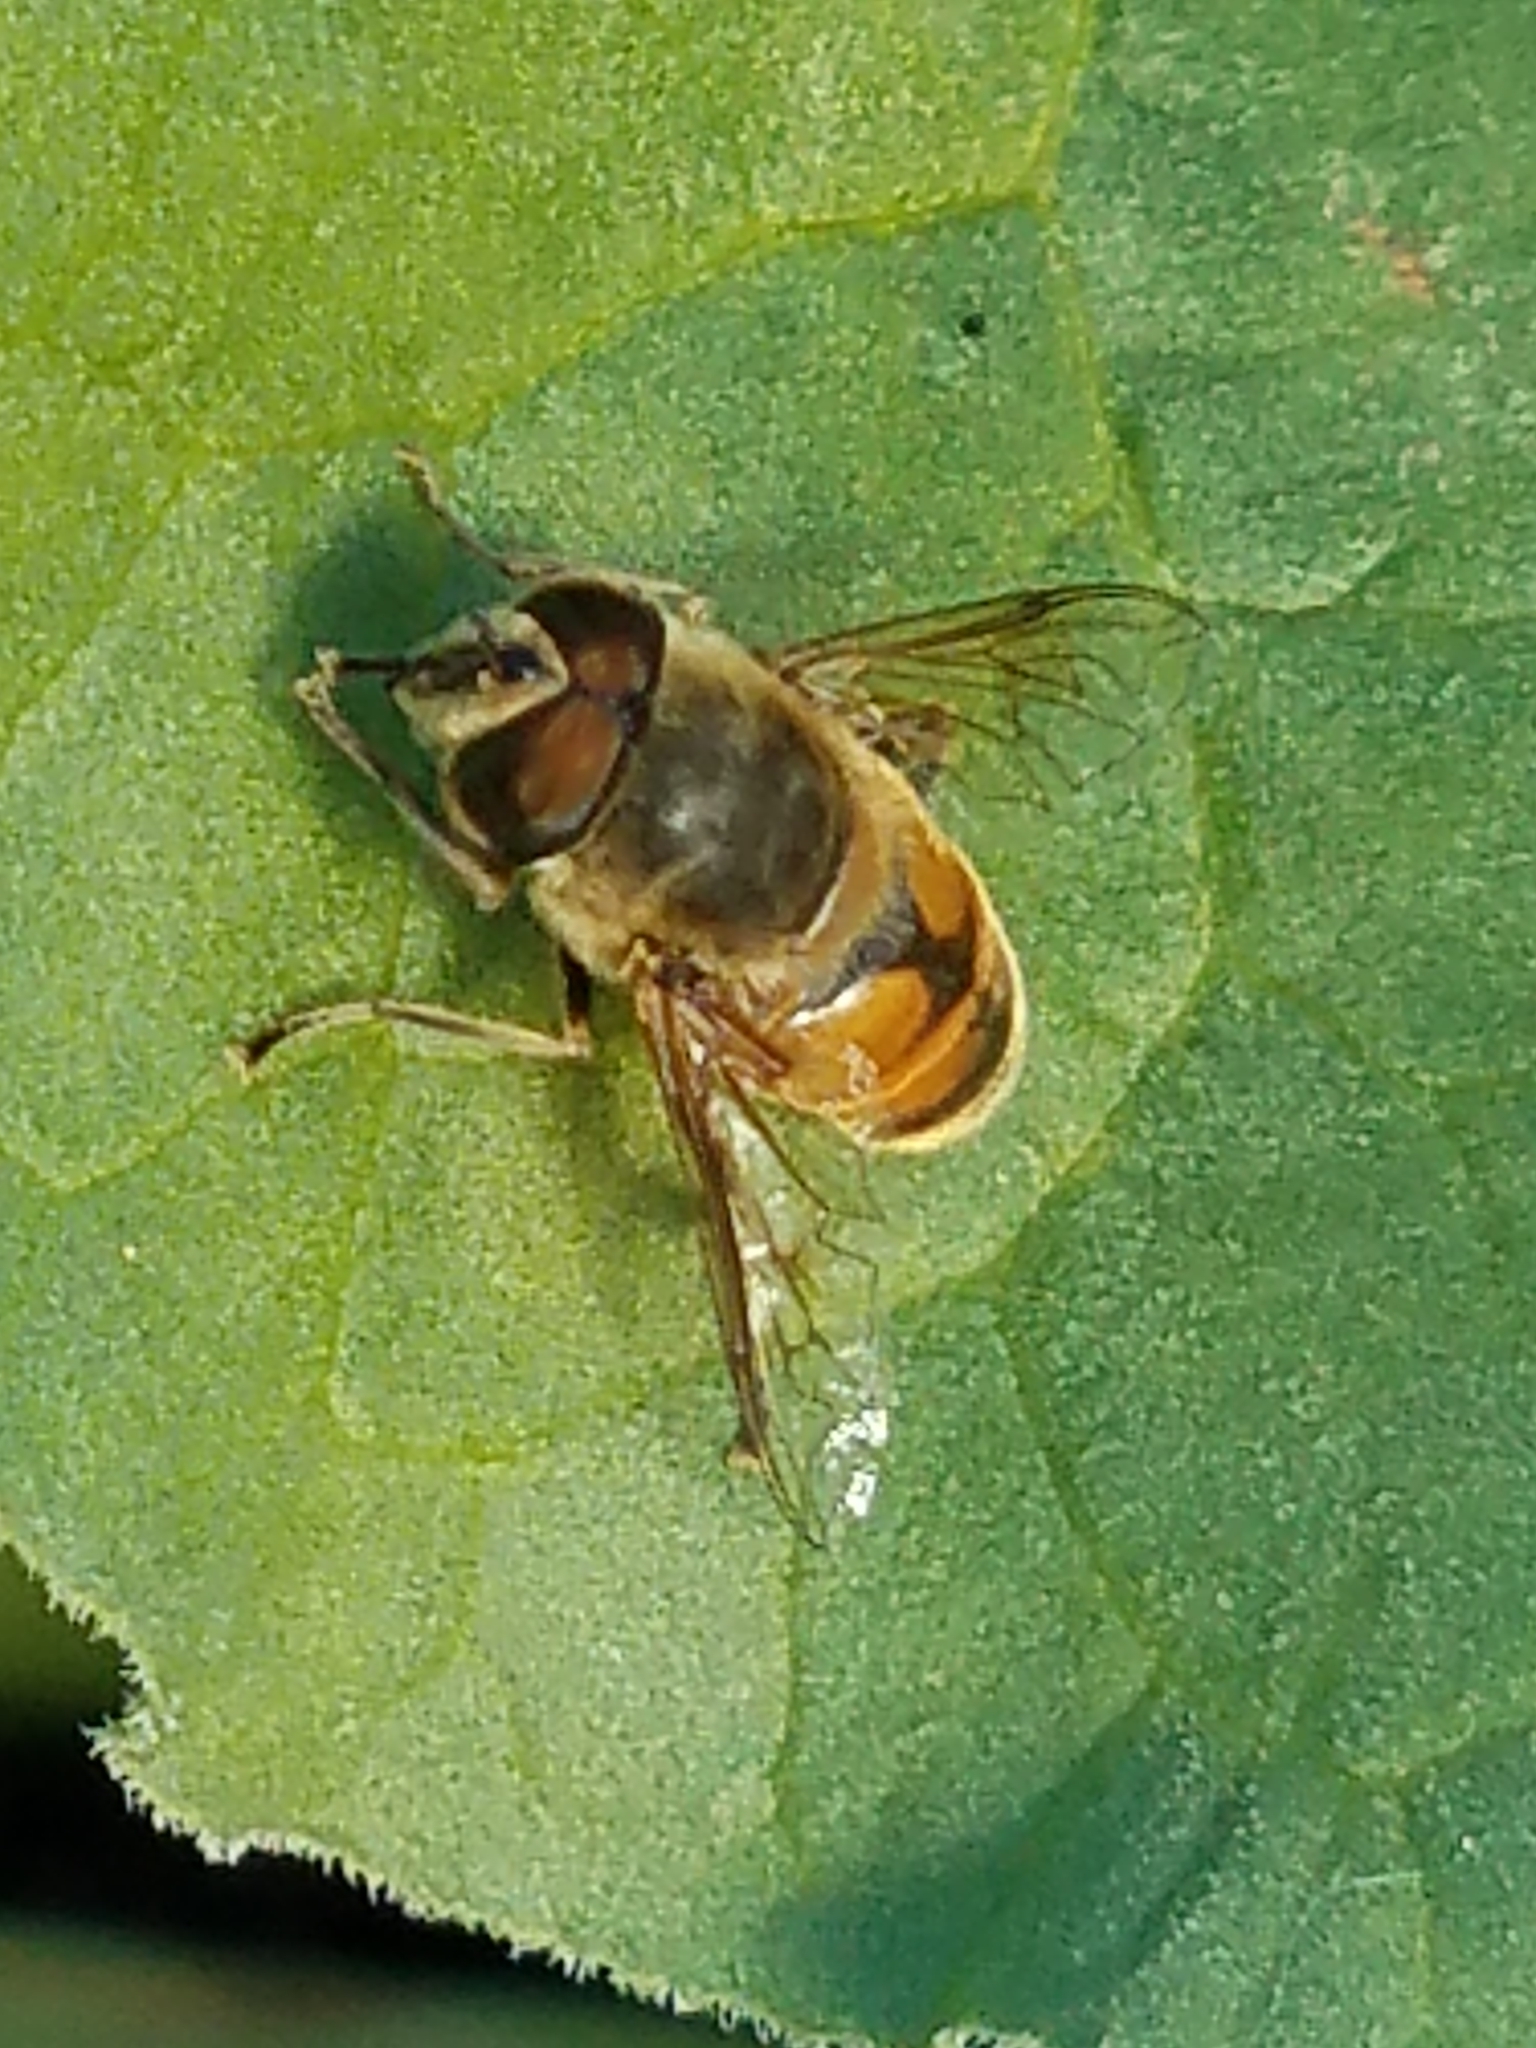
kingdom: Animalia
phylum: Arthropoda
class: Insecta
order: Diptera
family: Syrphidae
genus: Eristalis
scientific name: Eristalis tenax
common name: Drone fly
